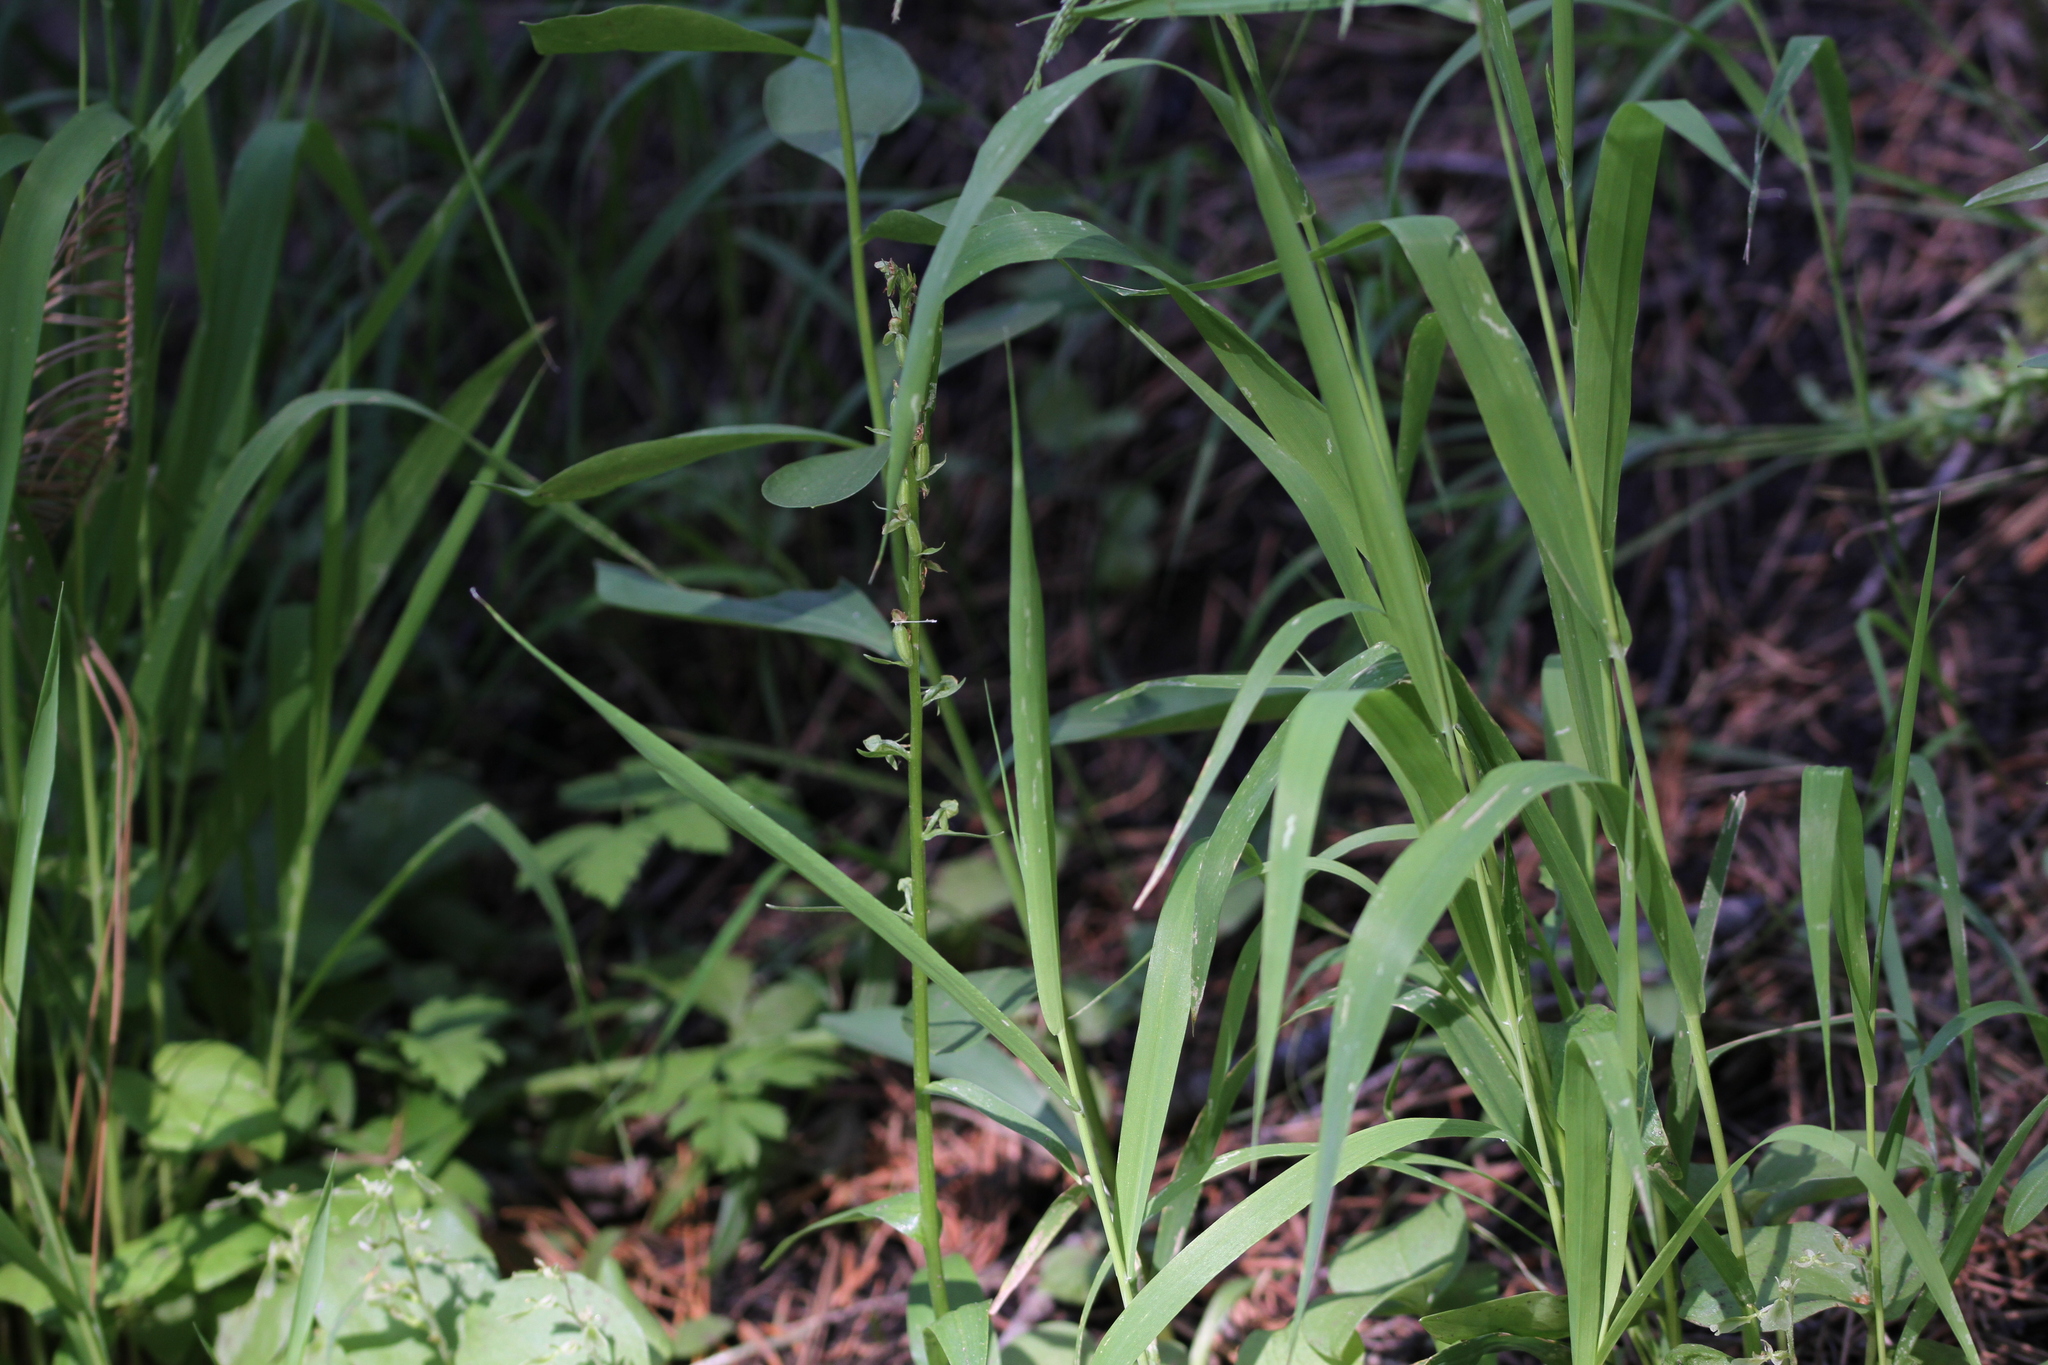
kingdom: Plantae
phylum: Tracheophyta
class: Liliopsida
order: Asparagales
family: Orchidaceae
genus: Platanthera
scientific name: Platanthera sparsiflora
